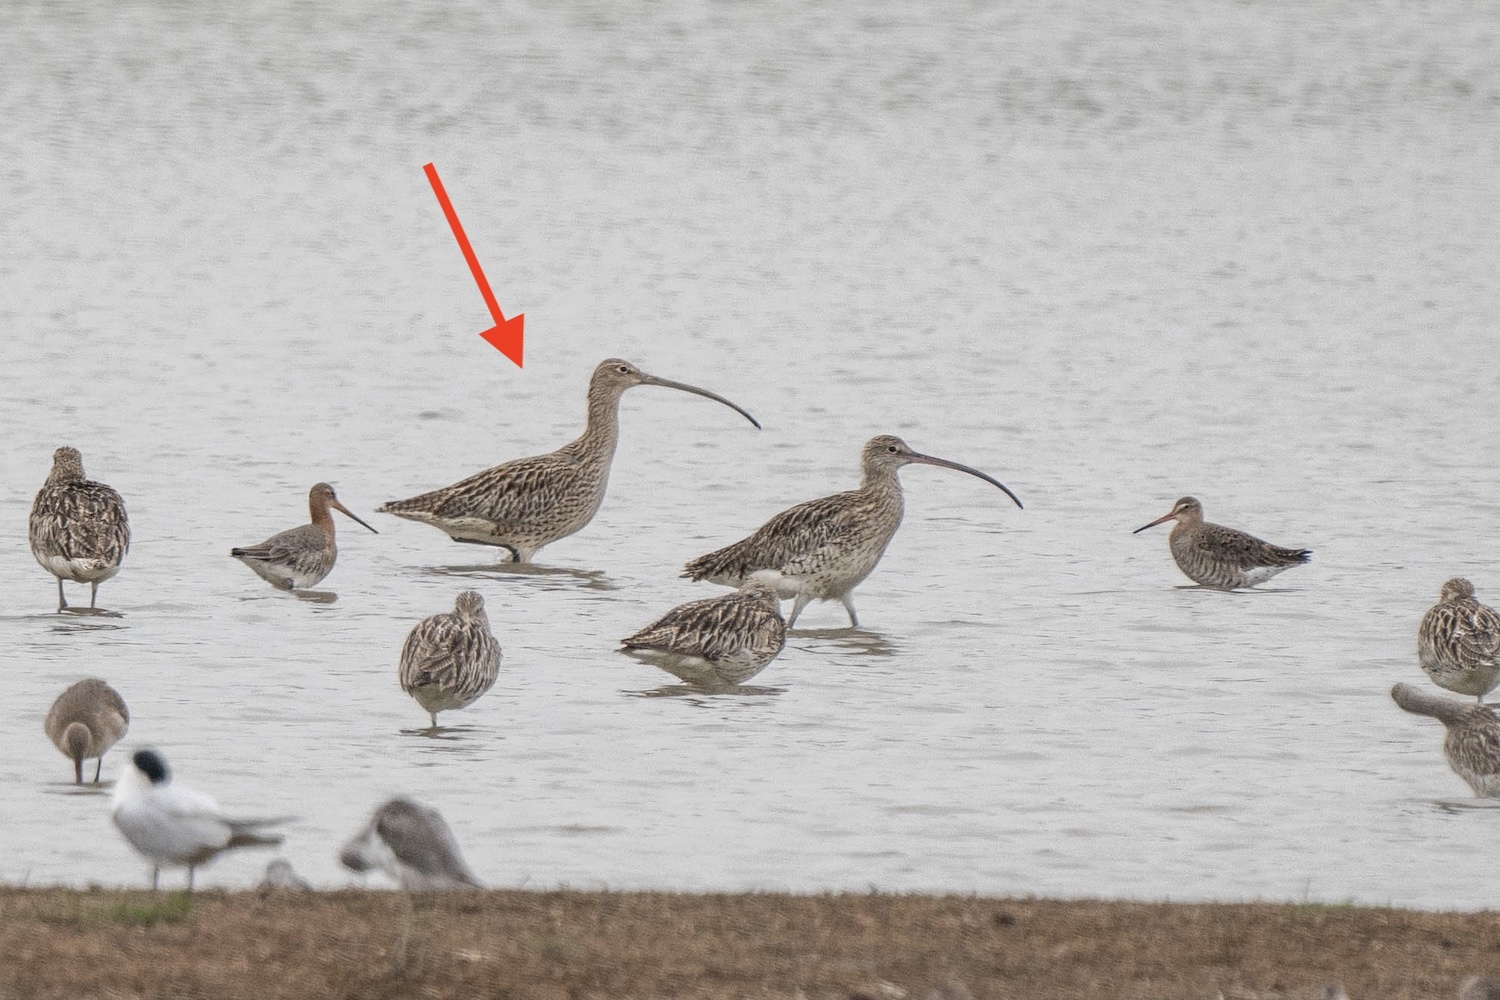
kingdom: Animalia
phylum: Chordata
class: Aves
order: Charadriiformes
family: Scolopacidae
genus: Numenius
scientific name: Numenius madagascariensis
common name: Far eastern curlew
